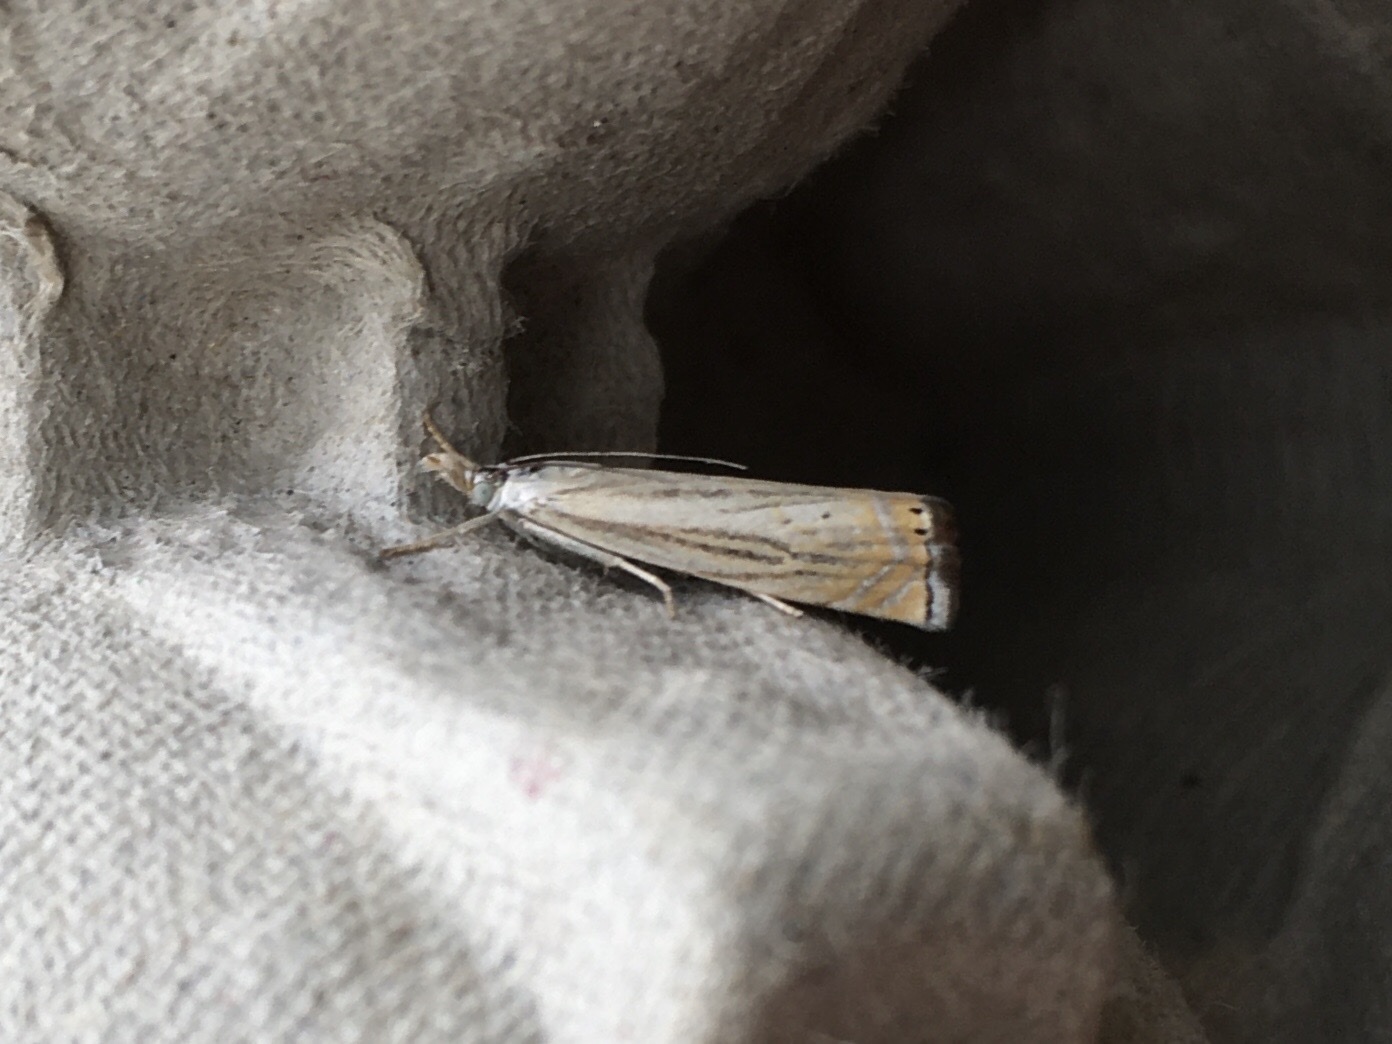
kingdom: Animalia
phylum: Arthropoda
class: Insecta
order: Lepidoptera
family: Crambidae
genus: Chrysoteuchia
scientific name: Chrysoteuchia topiarius
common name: Topiary grass-veneer
